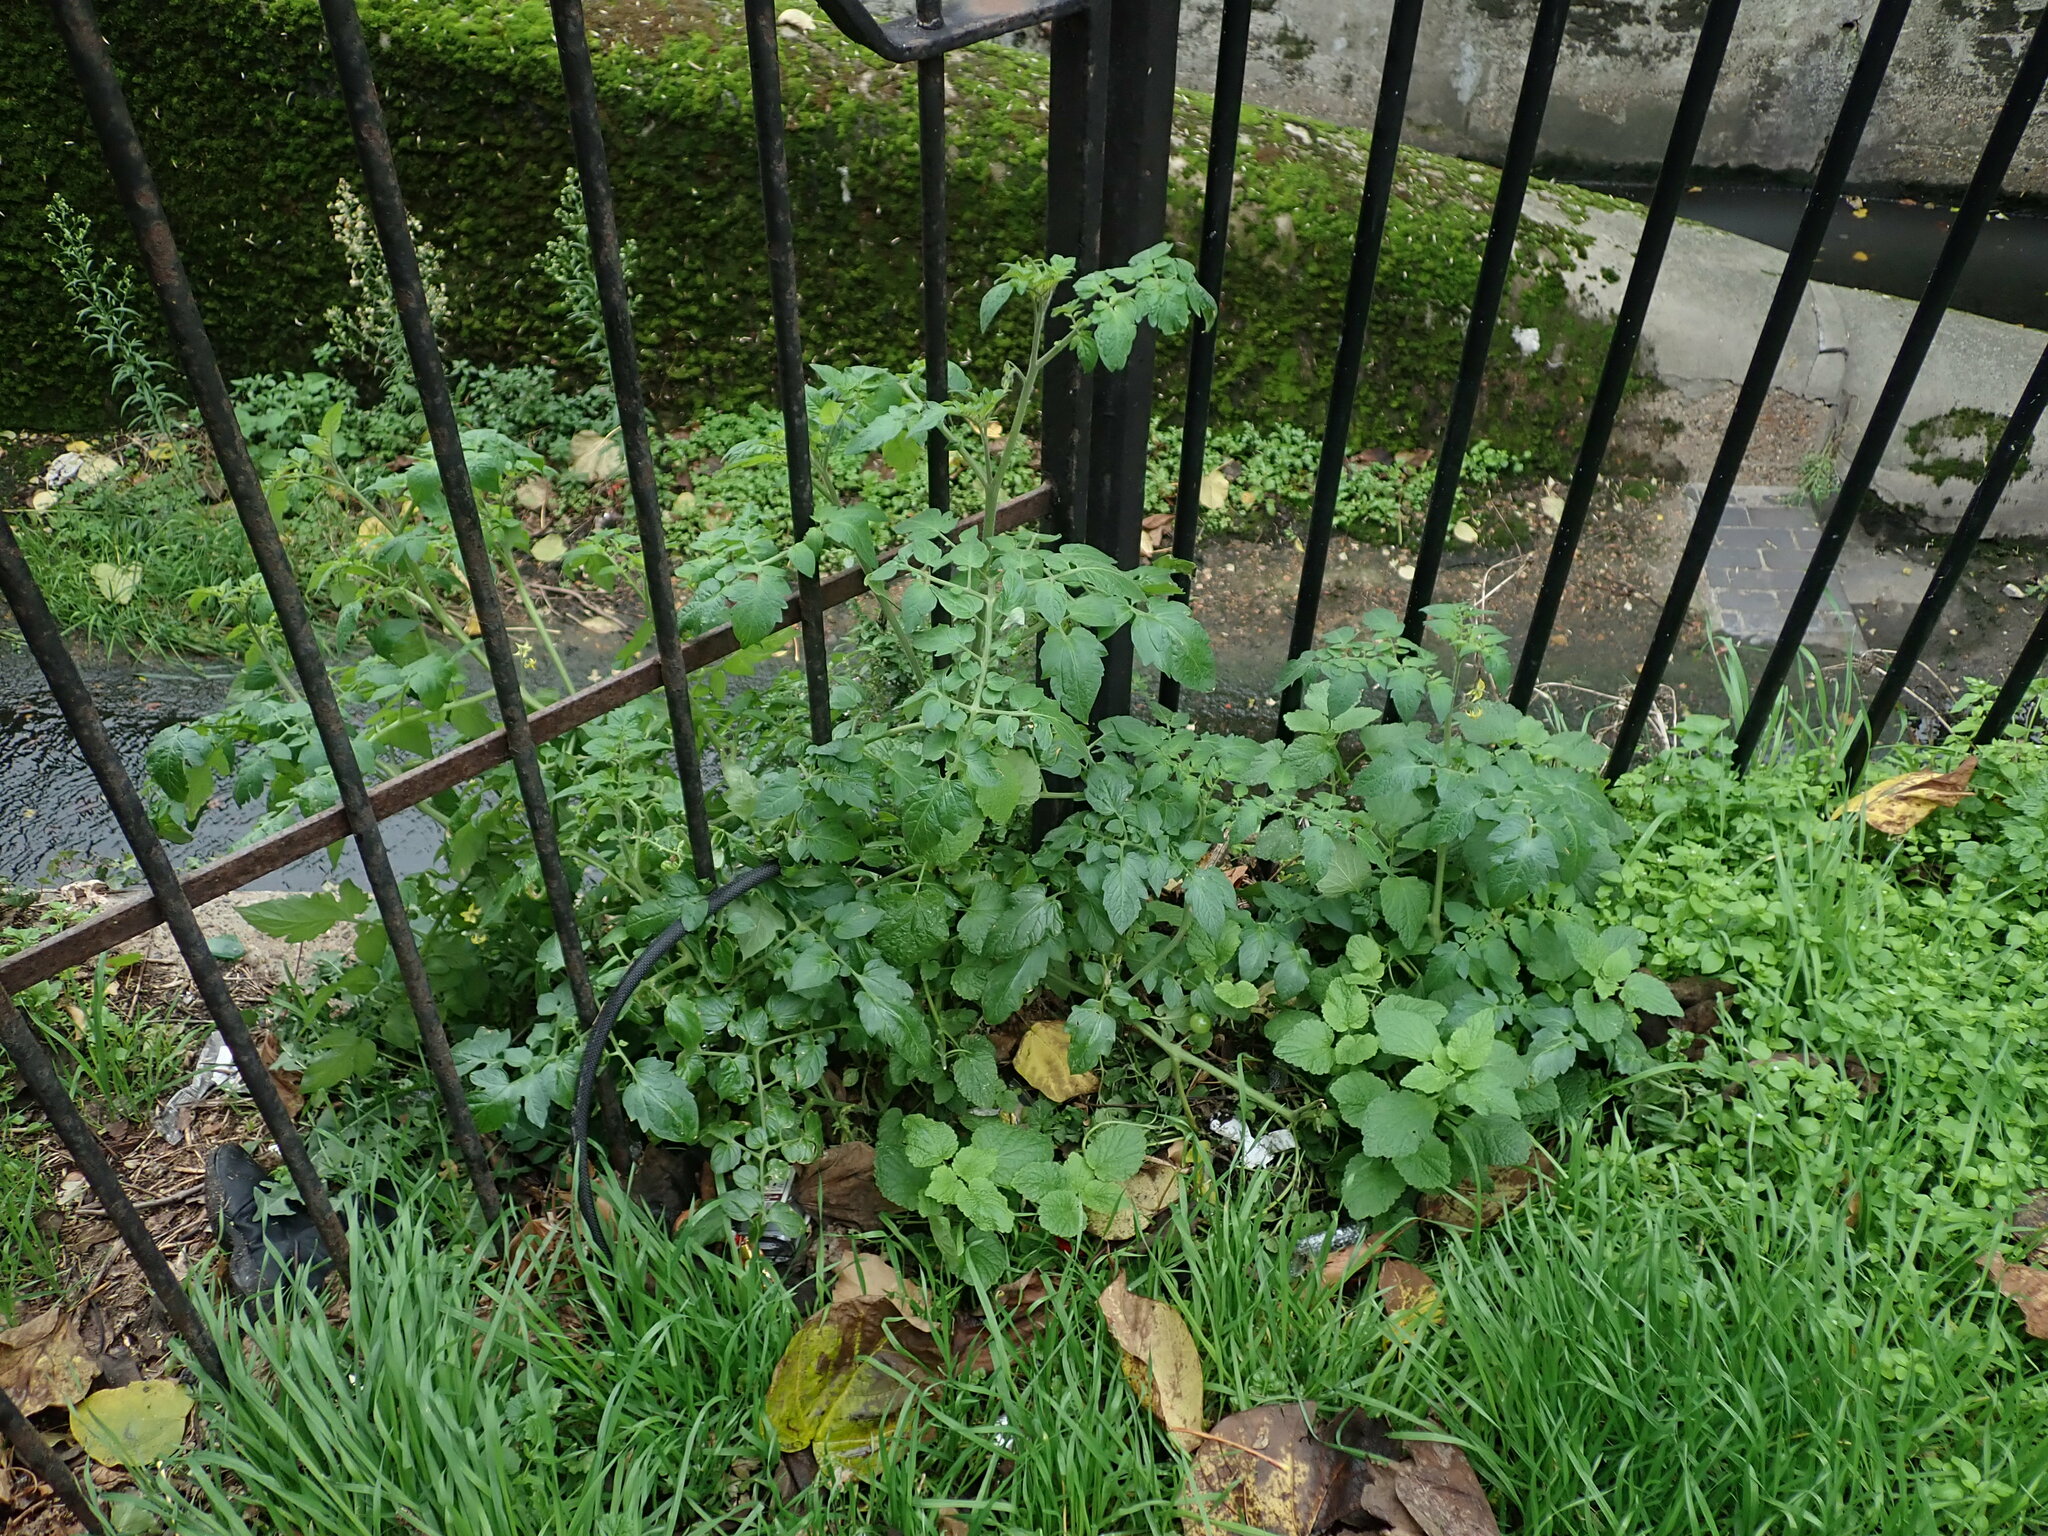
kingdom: Plantae
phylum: Tracheophyta
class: Magnoliopsida
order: Solanales
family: Solanaceae
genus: Solanum
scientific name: Solanum lycopersicum
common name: Garden tomato
